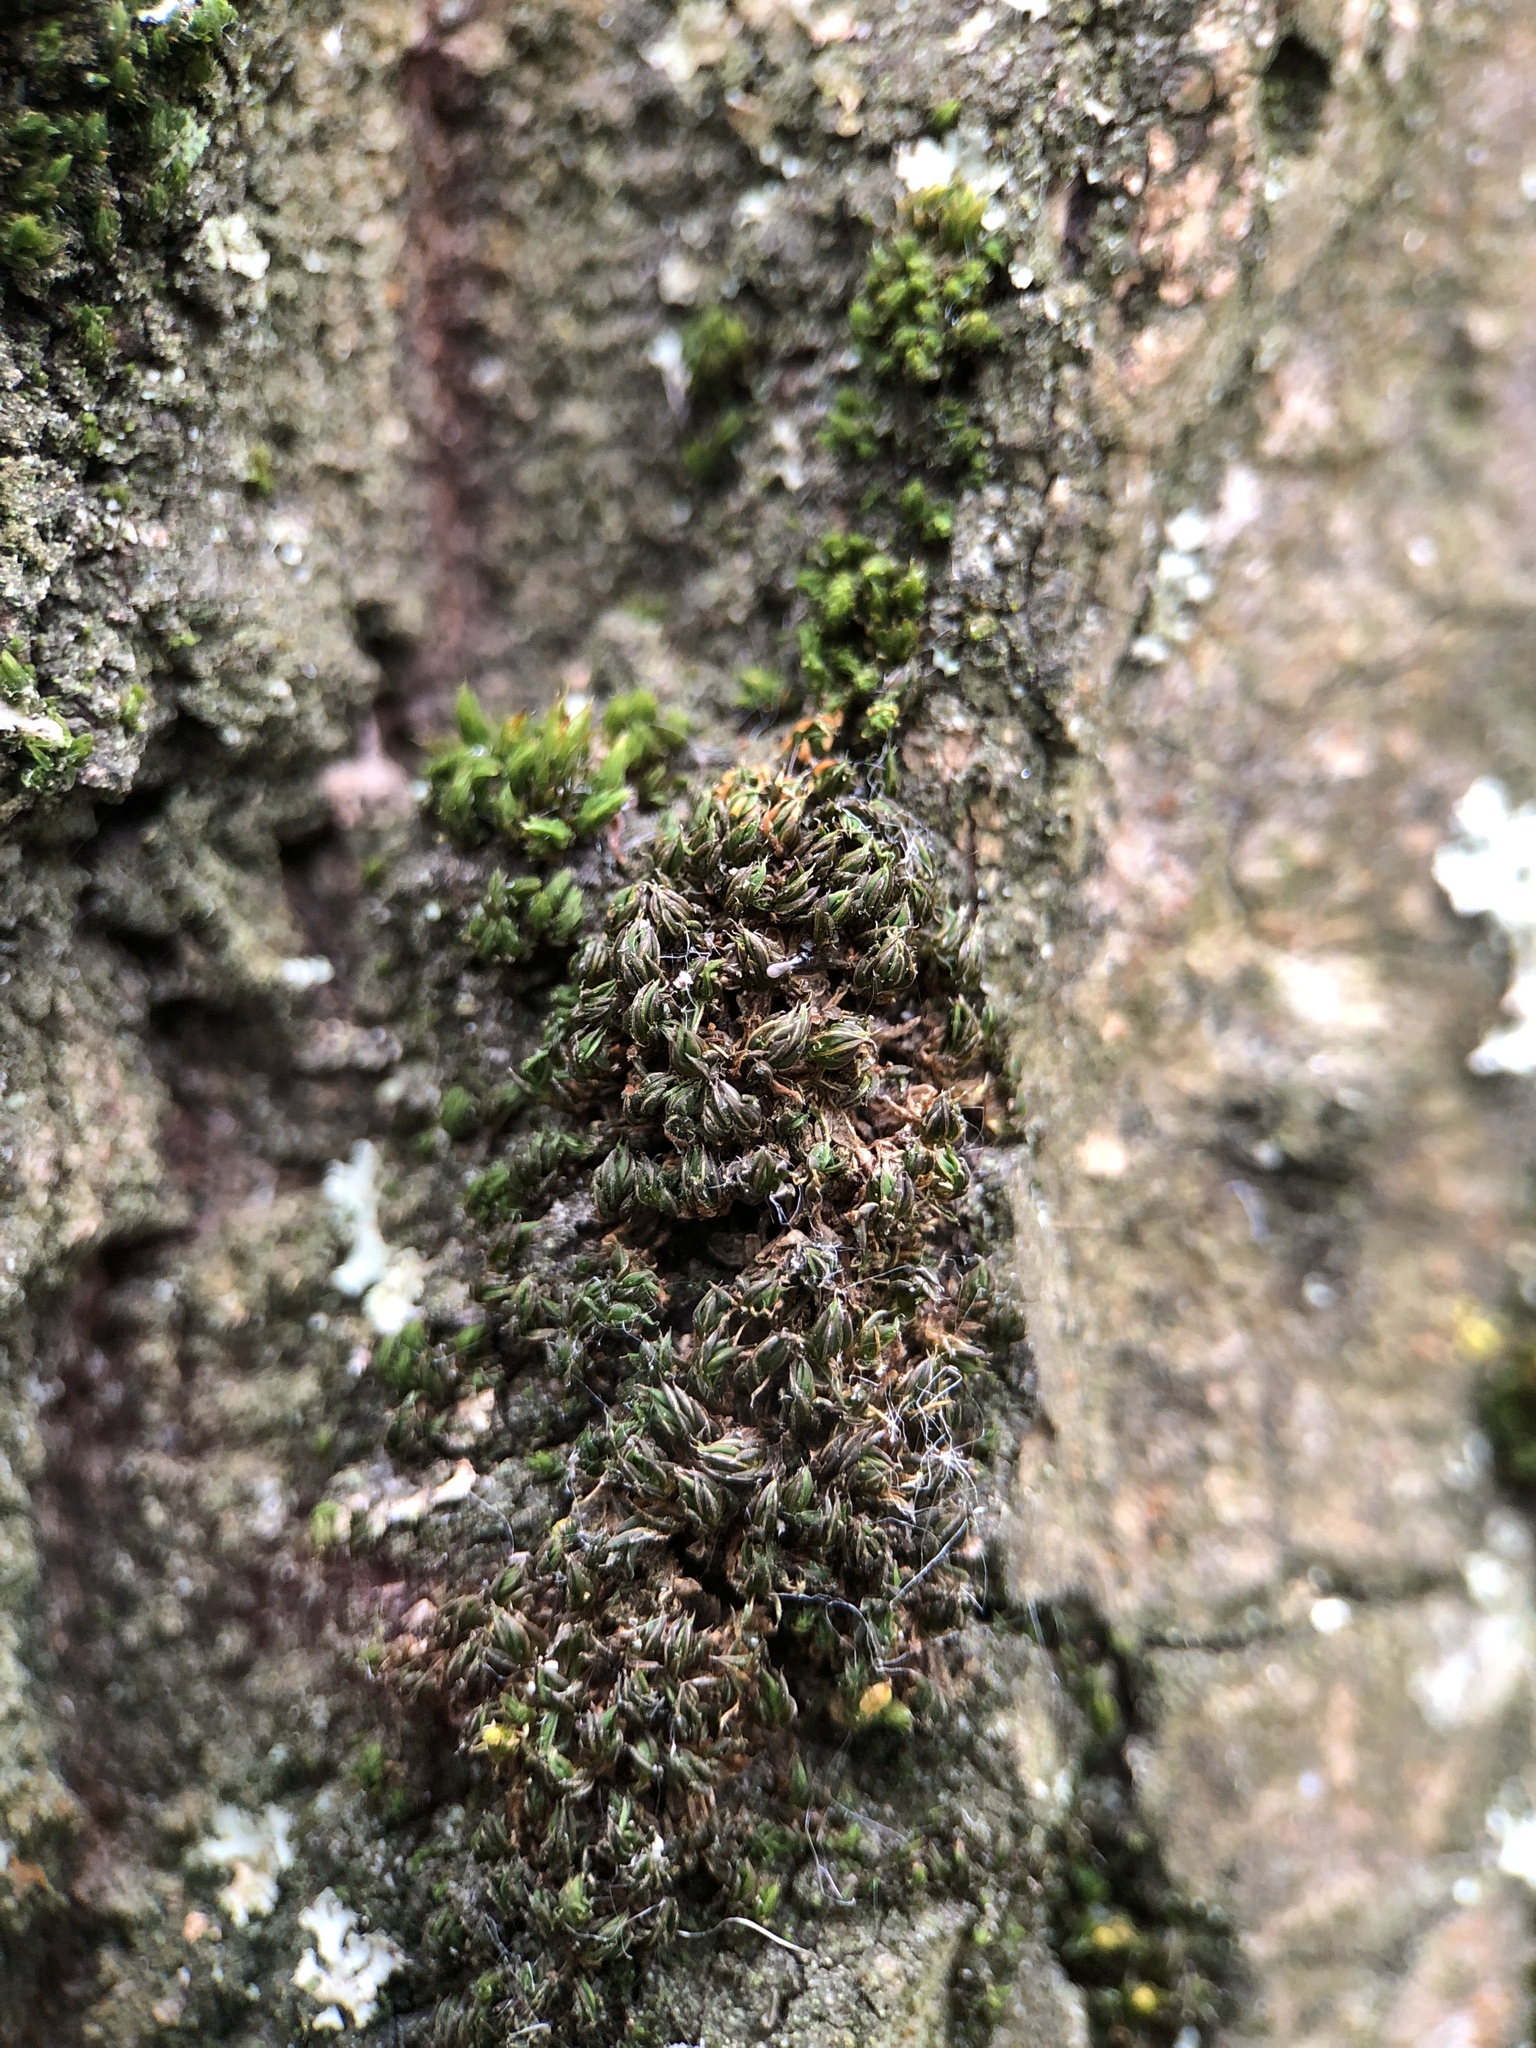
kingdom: Plantae
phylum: Bryophyta
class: Bryopsida
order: Pottiales
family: Pottiaceae
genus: Syntrichia
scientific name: Syntrichia papillosa
